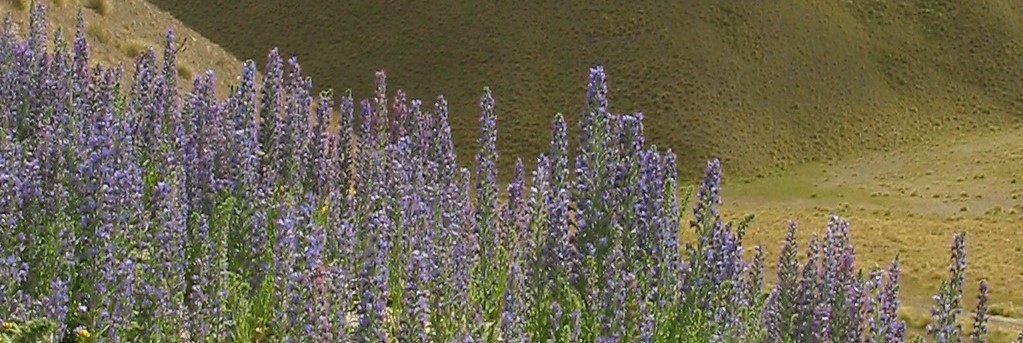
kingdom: Plantae
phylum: Tracheophyta
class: Magnoliopsida
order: Boraginales
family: Boraginaceae
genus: Echium
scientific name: Echium vulgare
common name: Common viper's bugloss
